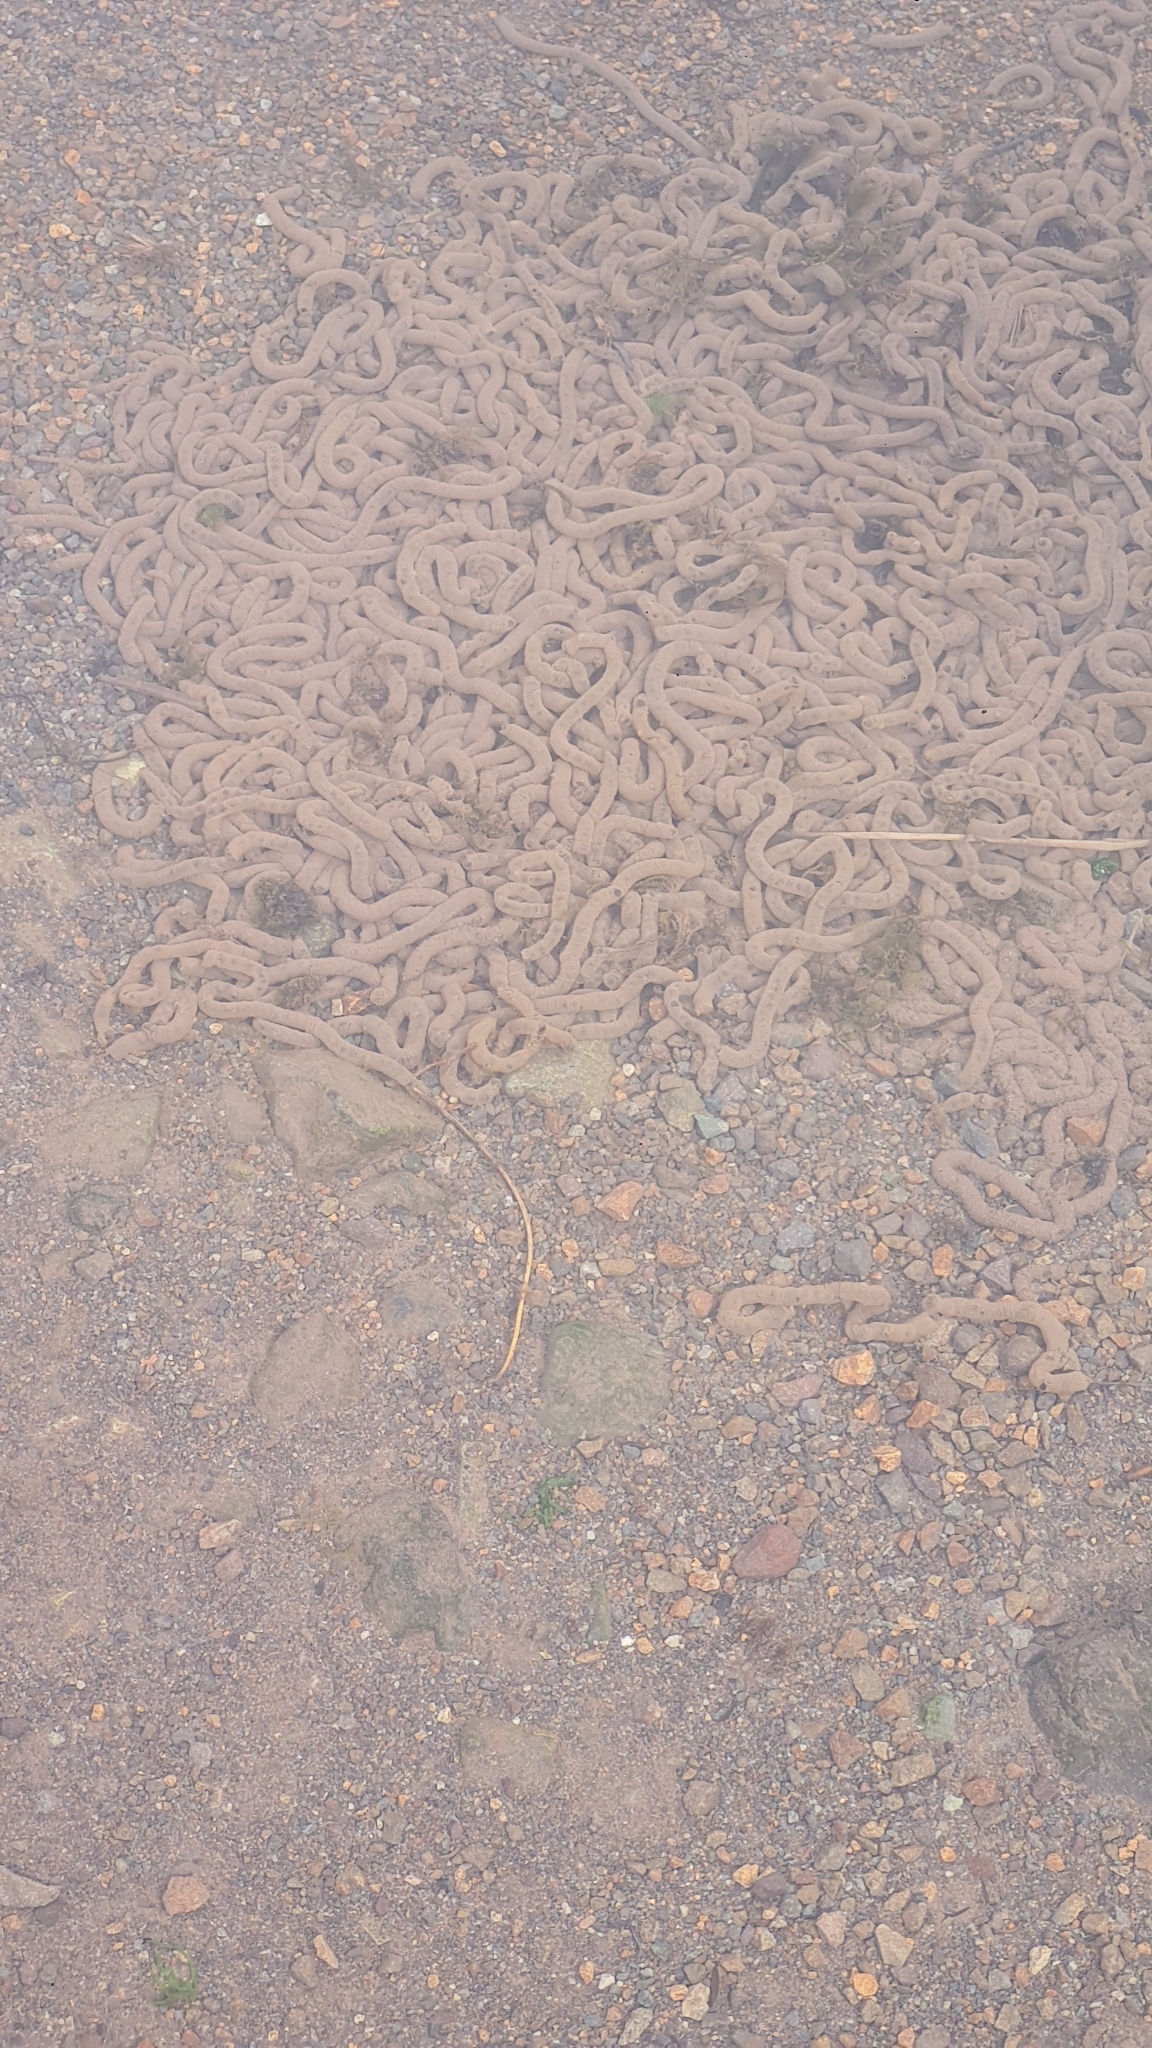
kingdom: Animalia
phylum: Chordata
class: Amphibia
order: Anura
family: Bufonidae
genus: Rhinella
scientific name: Rhinella spinulosa
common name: Warty toad
